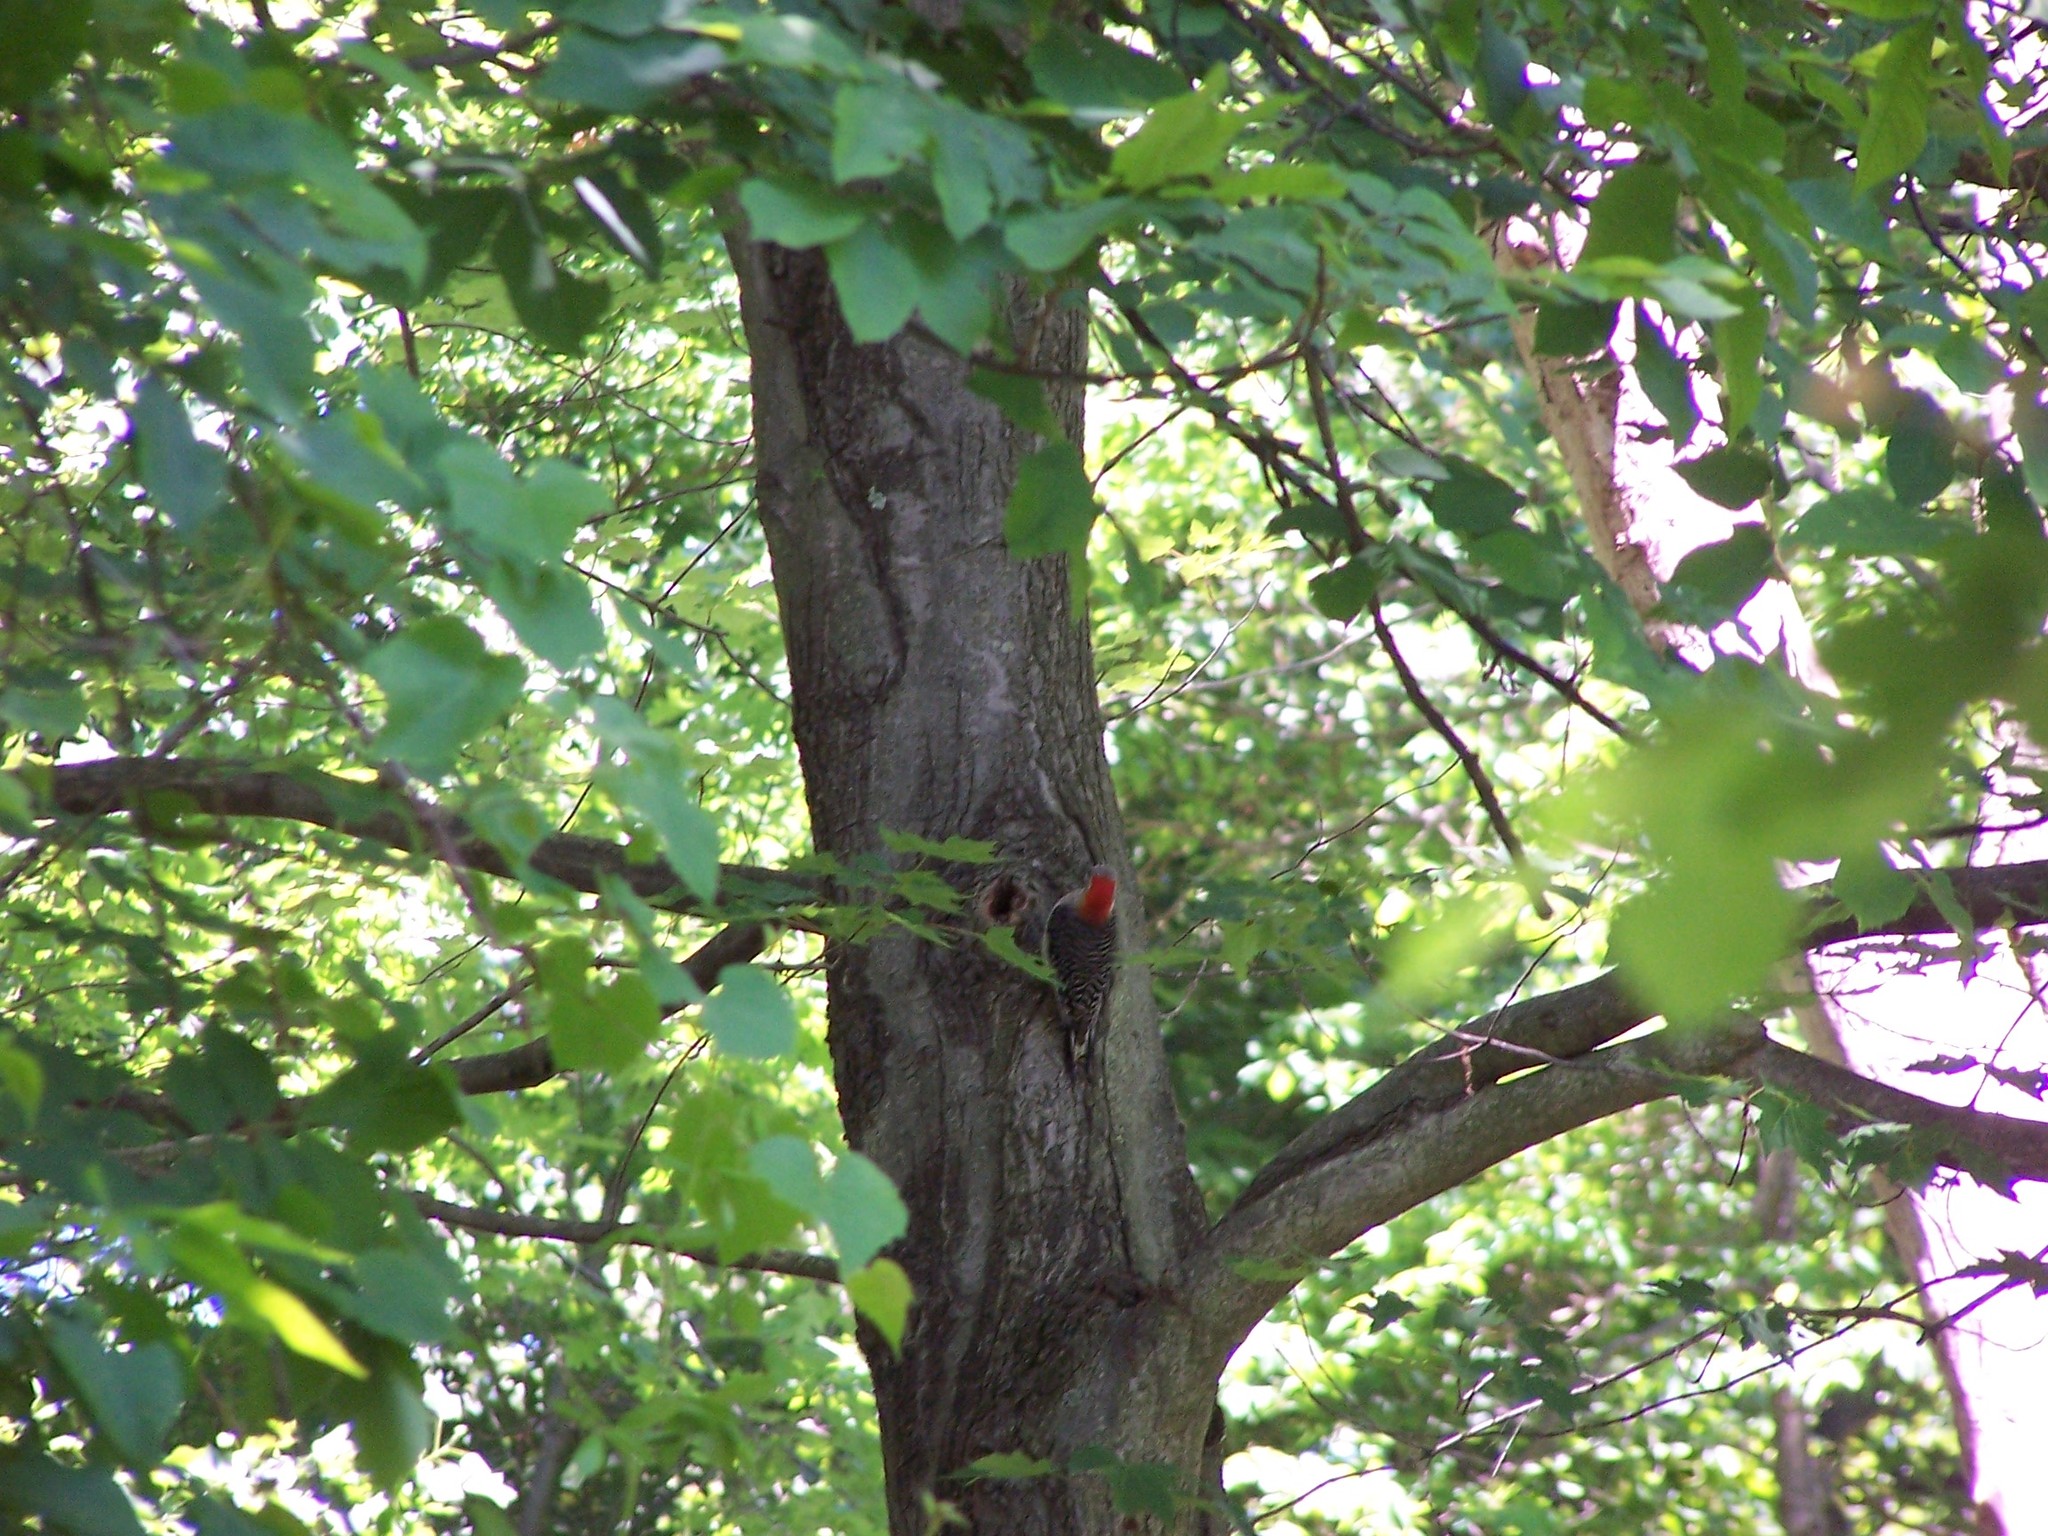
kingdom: Animalia
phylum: Chordata
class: Aves
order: Piciformes
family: Picidae
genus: Melanerpes
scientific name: Melanerpes carolinus
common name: Red-bellied woodpecker
